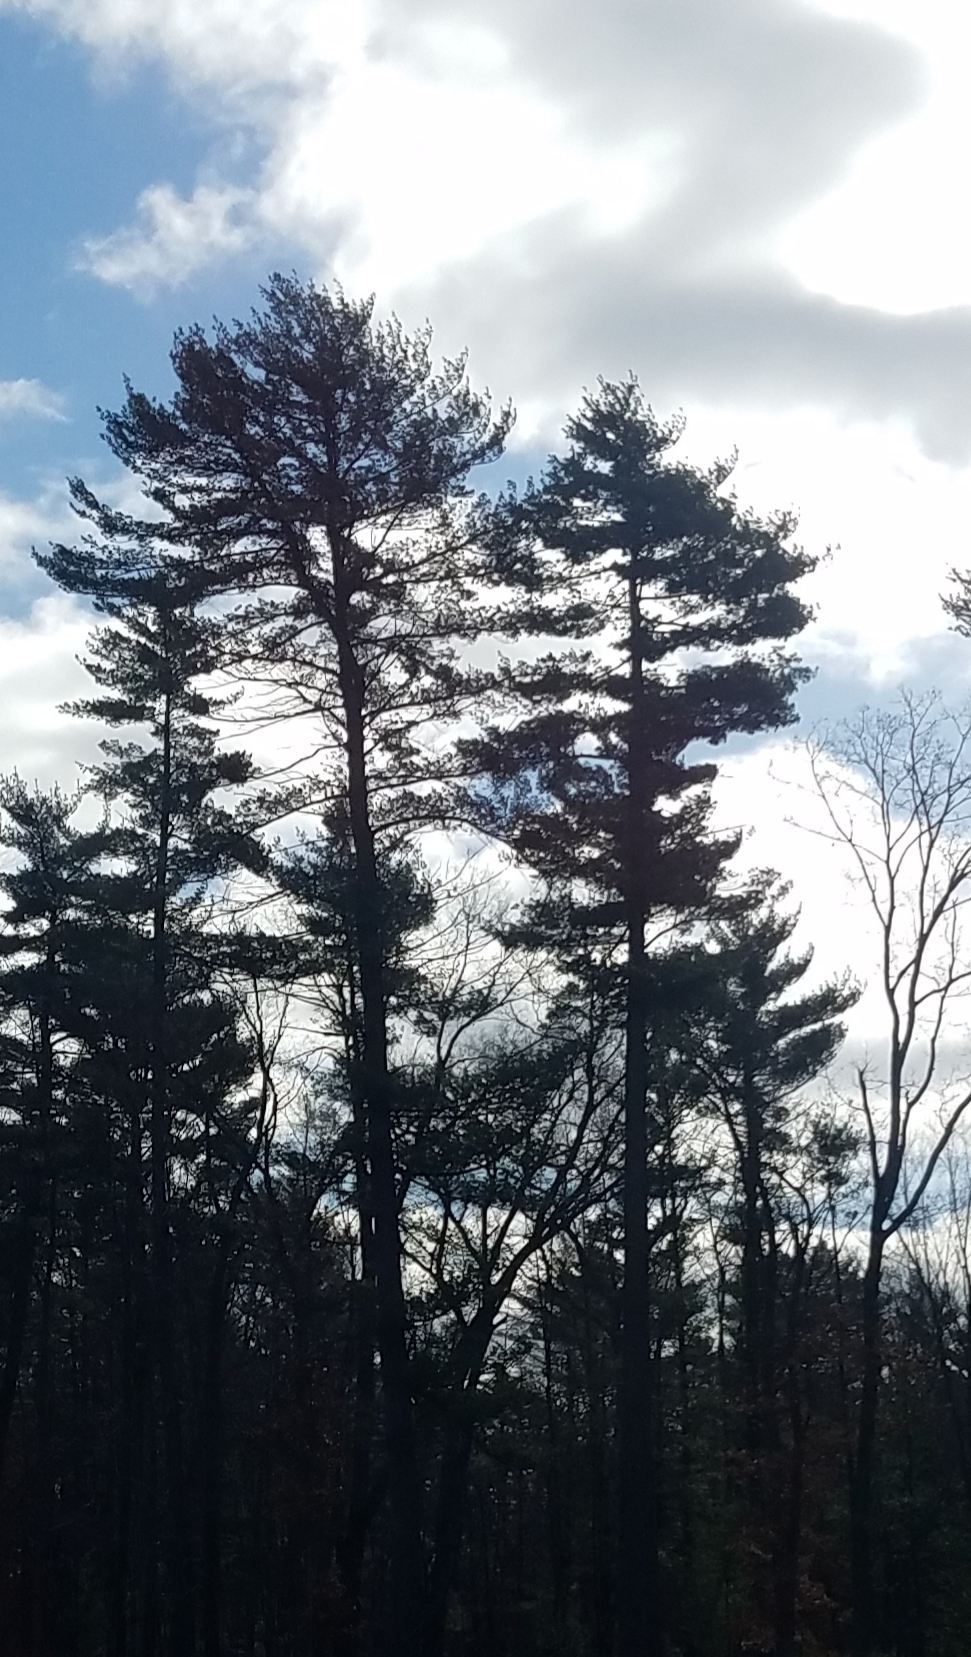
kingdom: Plantae
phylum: Tracheophyta
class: Pinopsida
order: Pinales
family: Pinaceae
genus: Pinus
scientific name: Pinus strobus
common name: Weymouth pine
